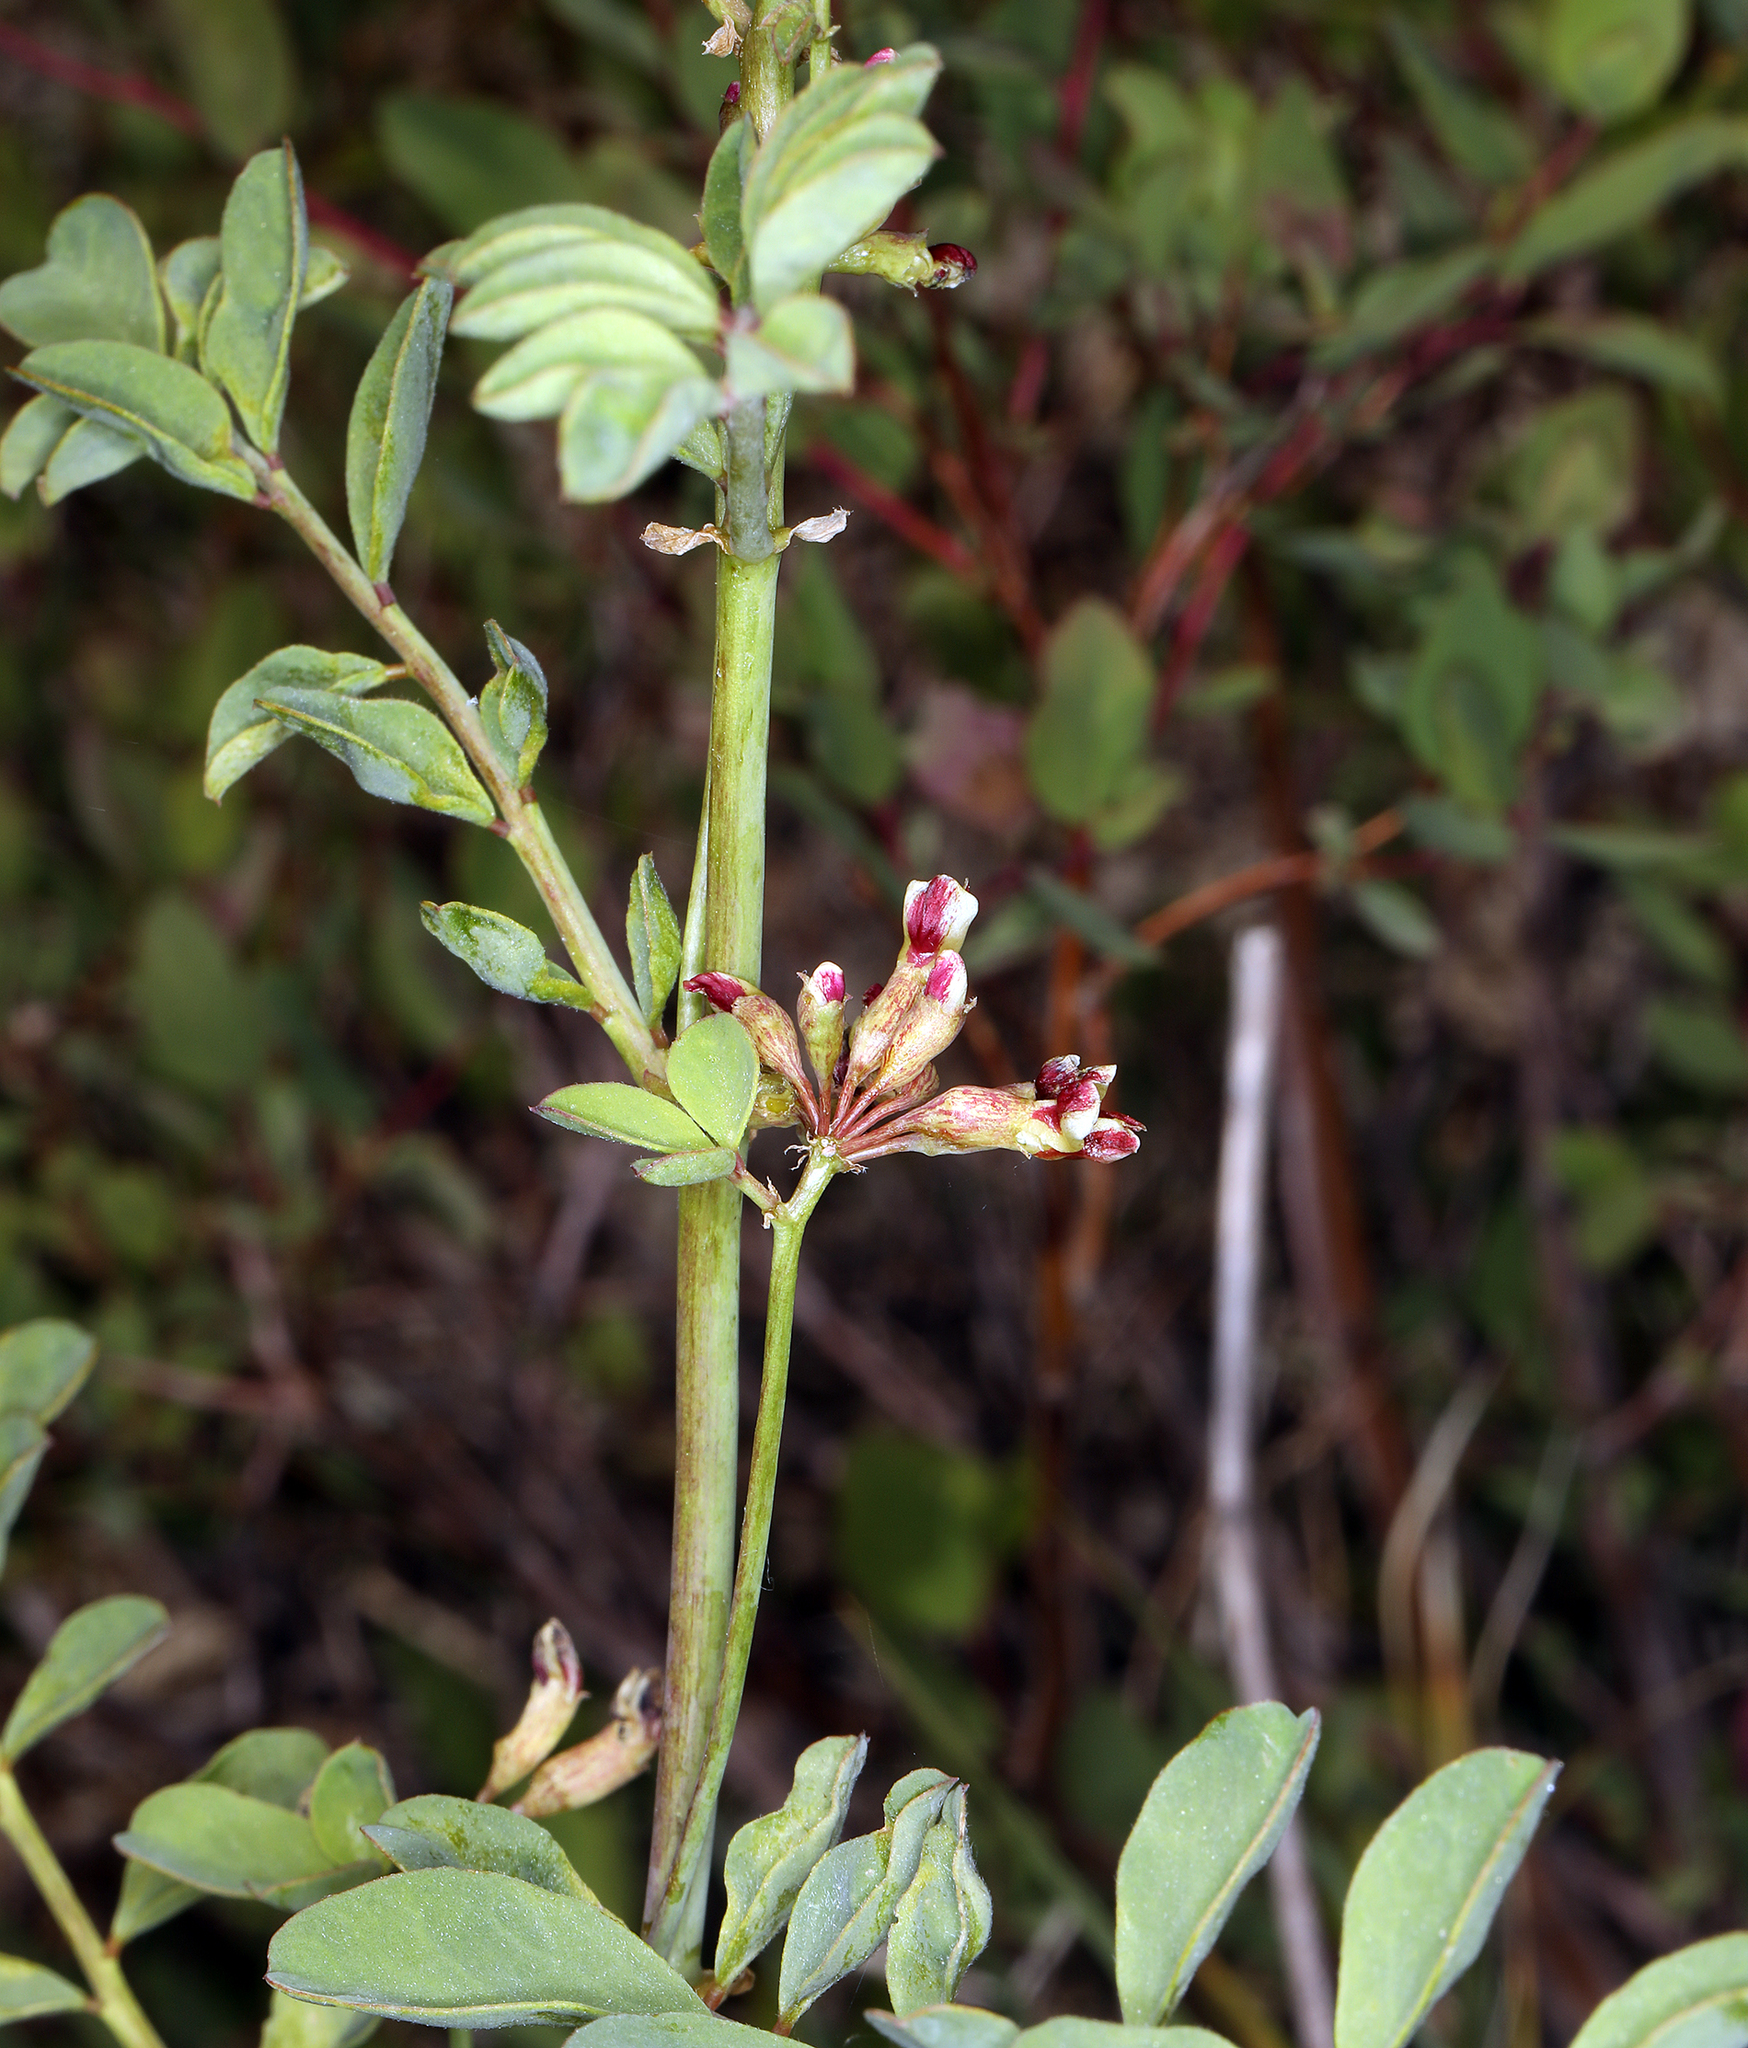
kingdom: Plantae
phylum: Tracheophyta
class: Magnoliopsida
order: Fabales
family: Fabaceae
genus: Hosackia
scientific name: Hosackia crassifolia
